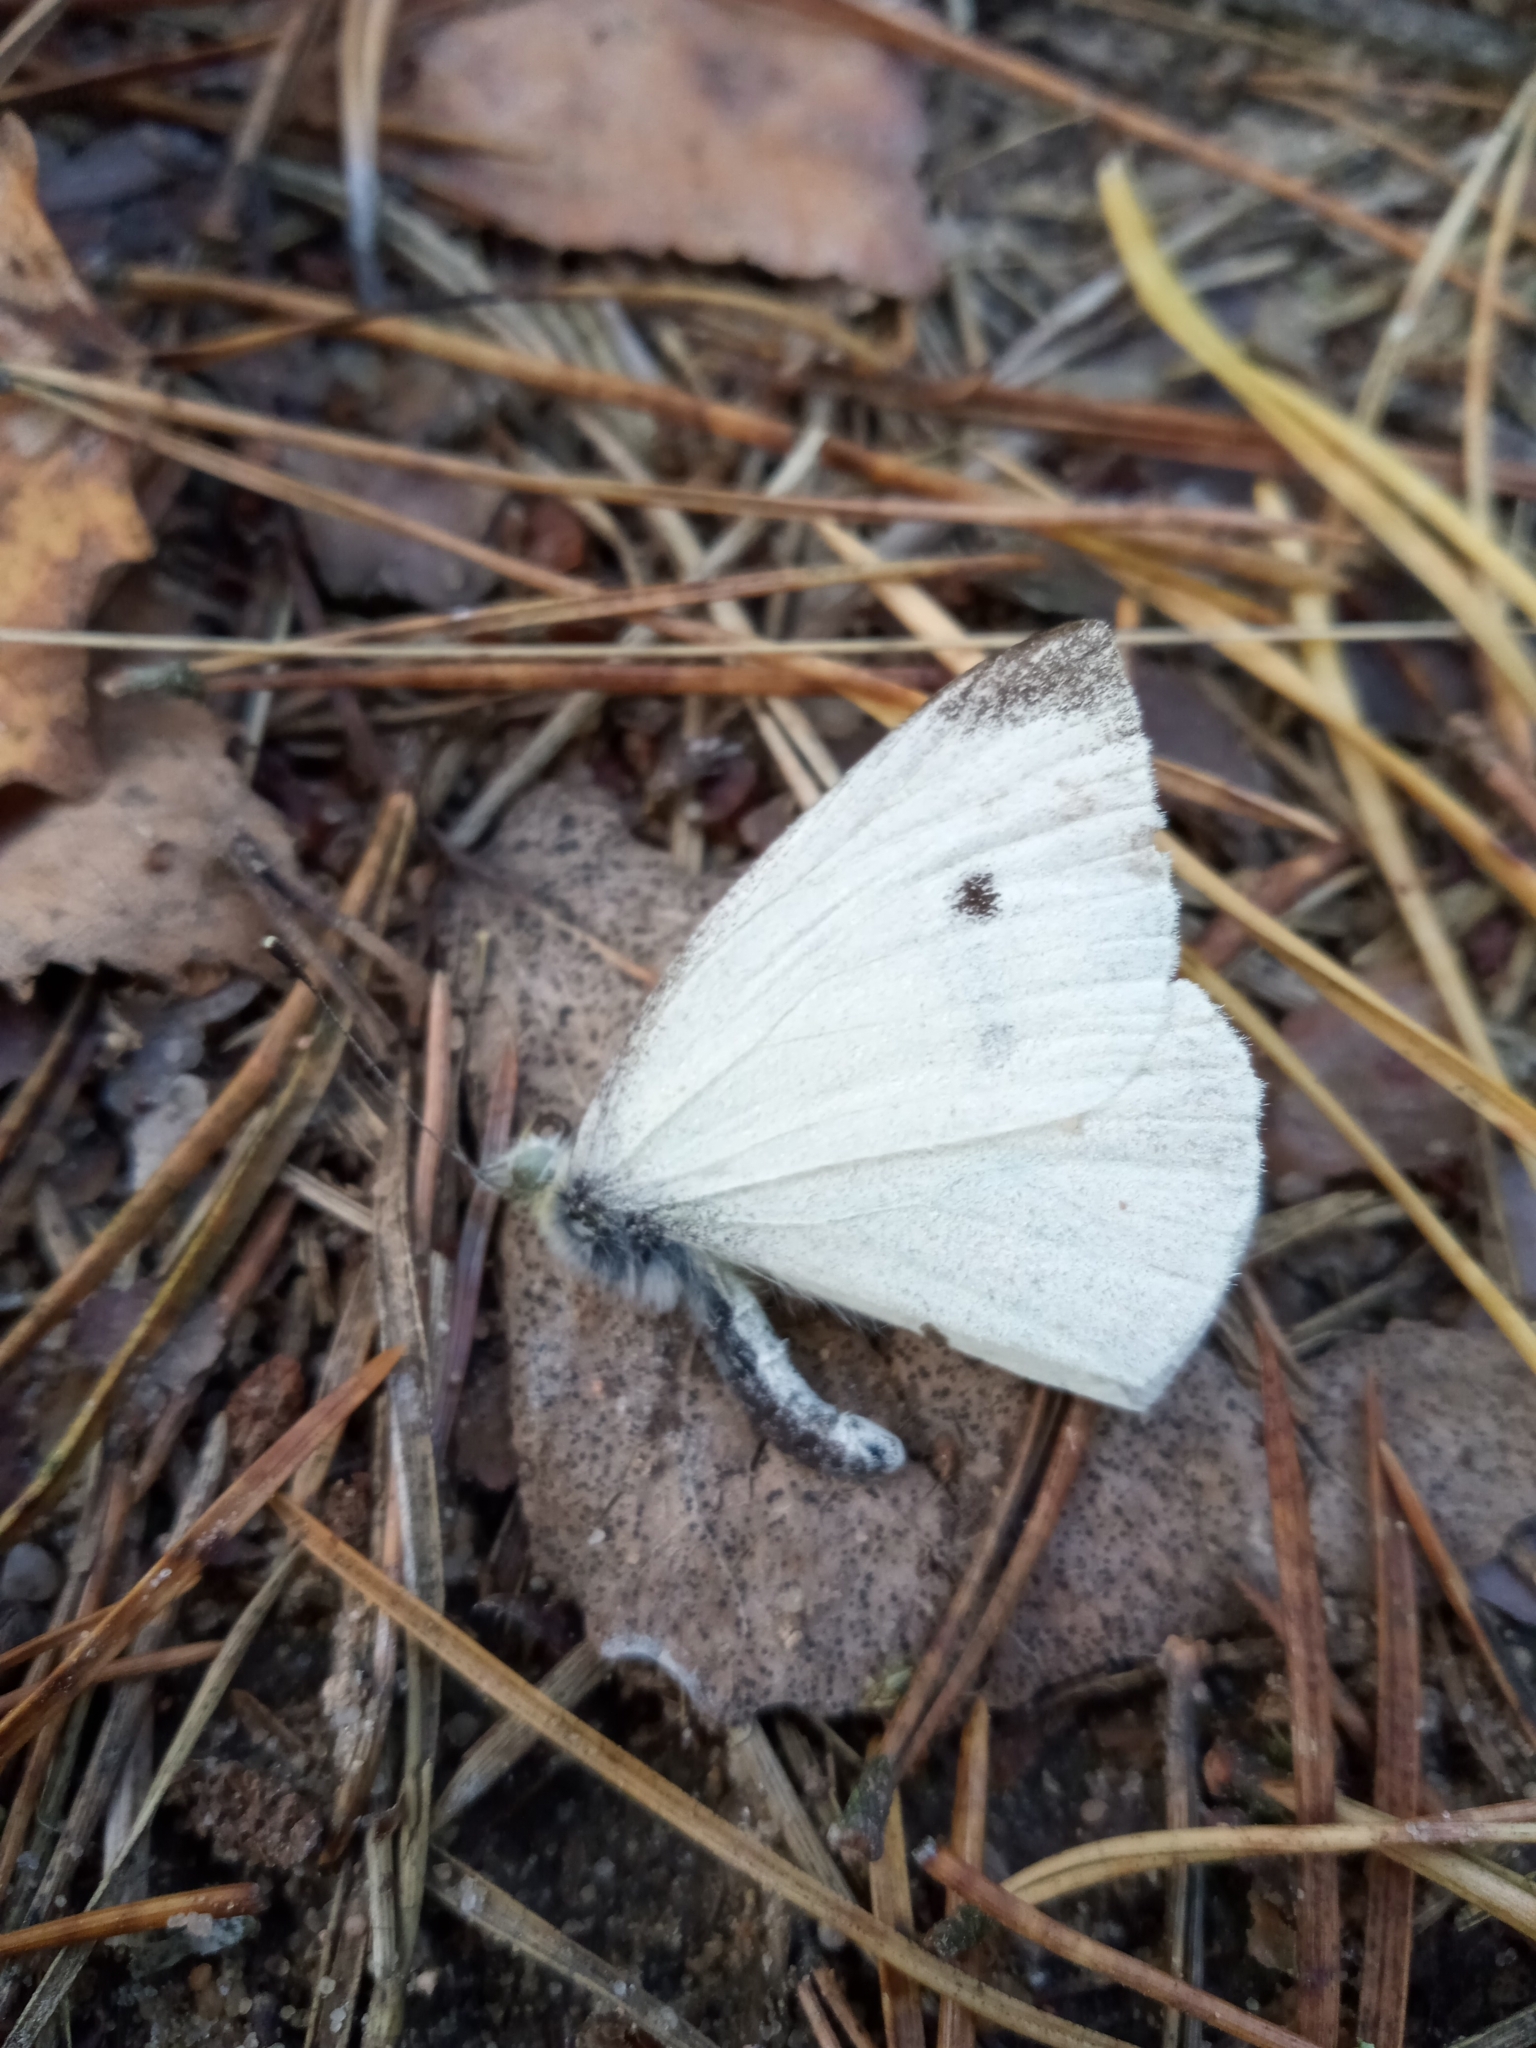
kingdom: Animalia
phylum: Arthropoda
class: Insecta
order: Lepidoptera
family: Pieridae
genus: Pieris
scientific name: Pieris rapae
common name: Small white
